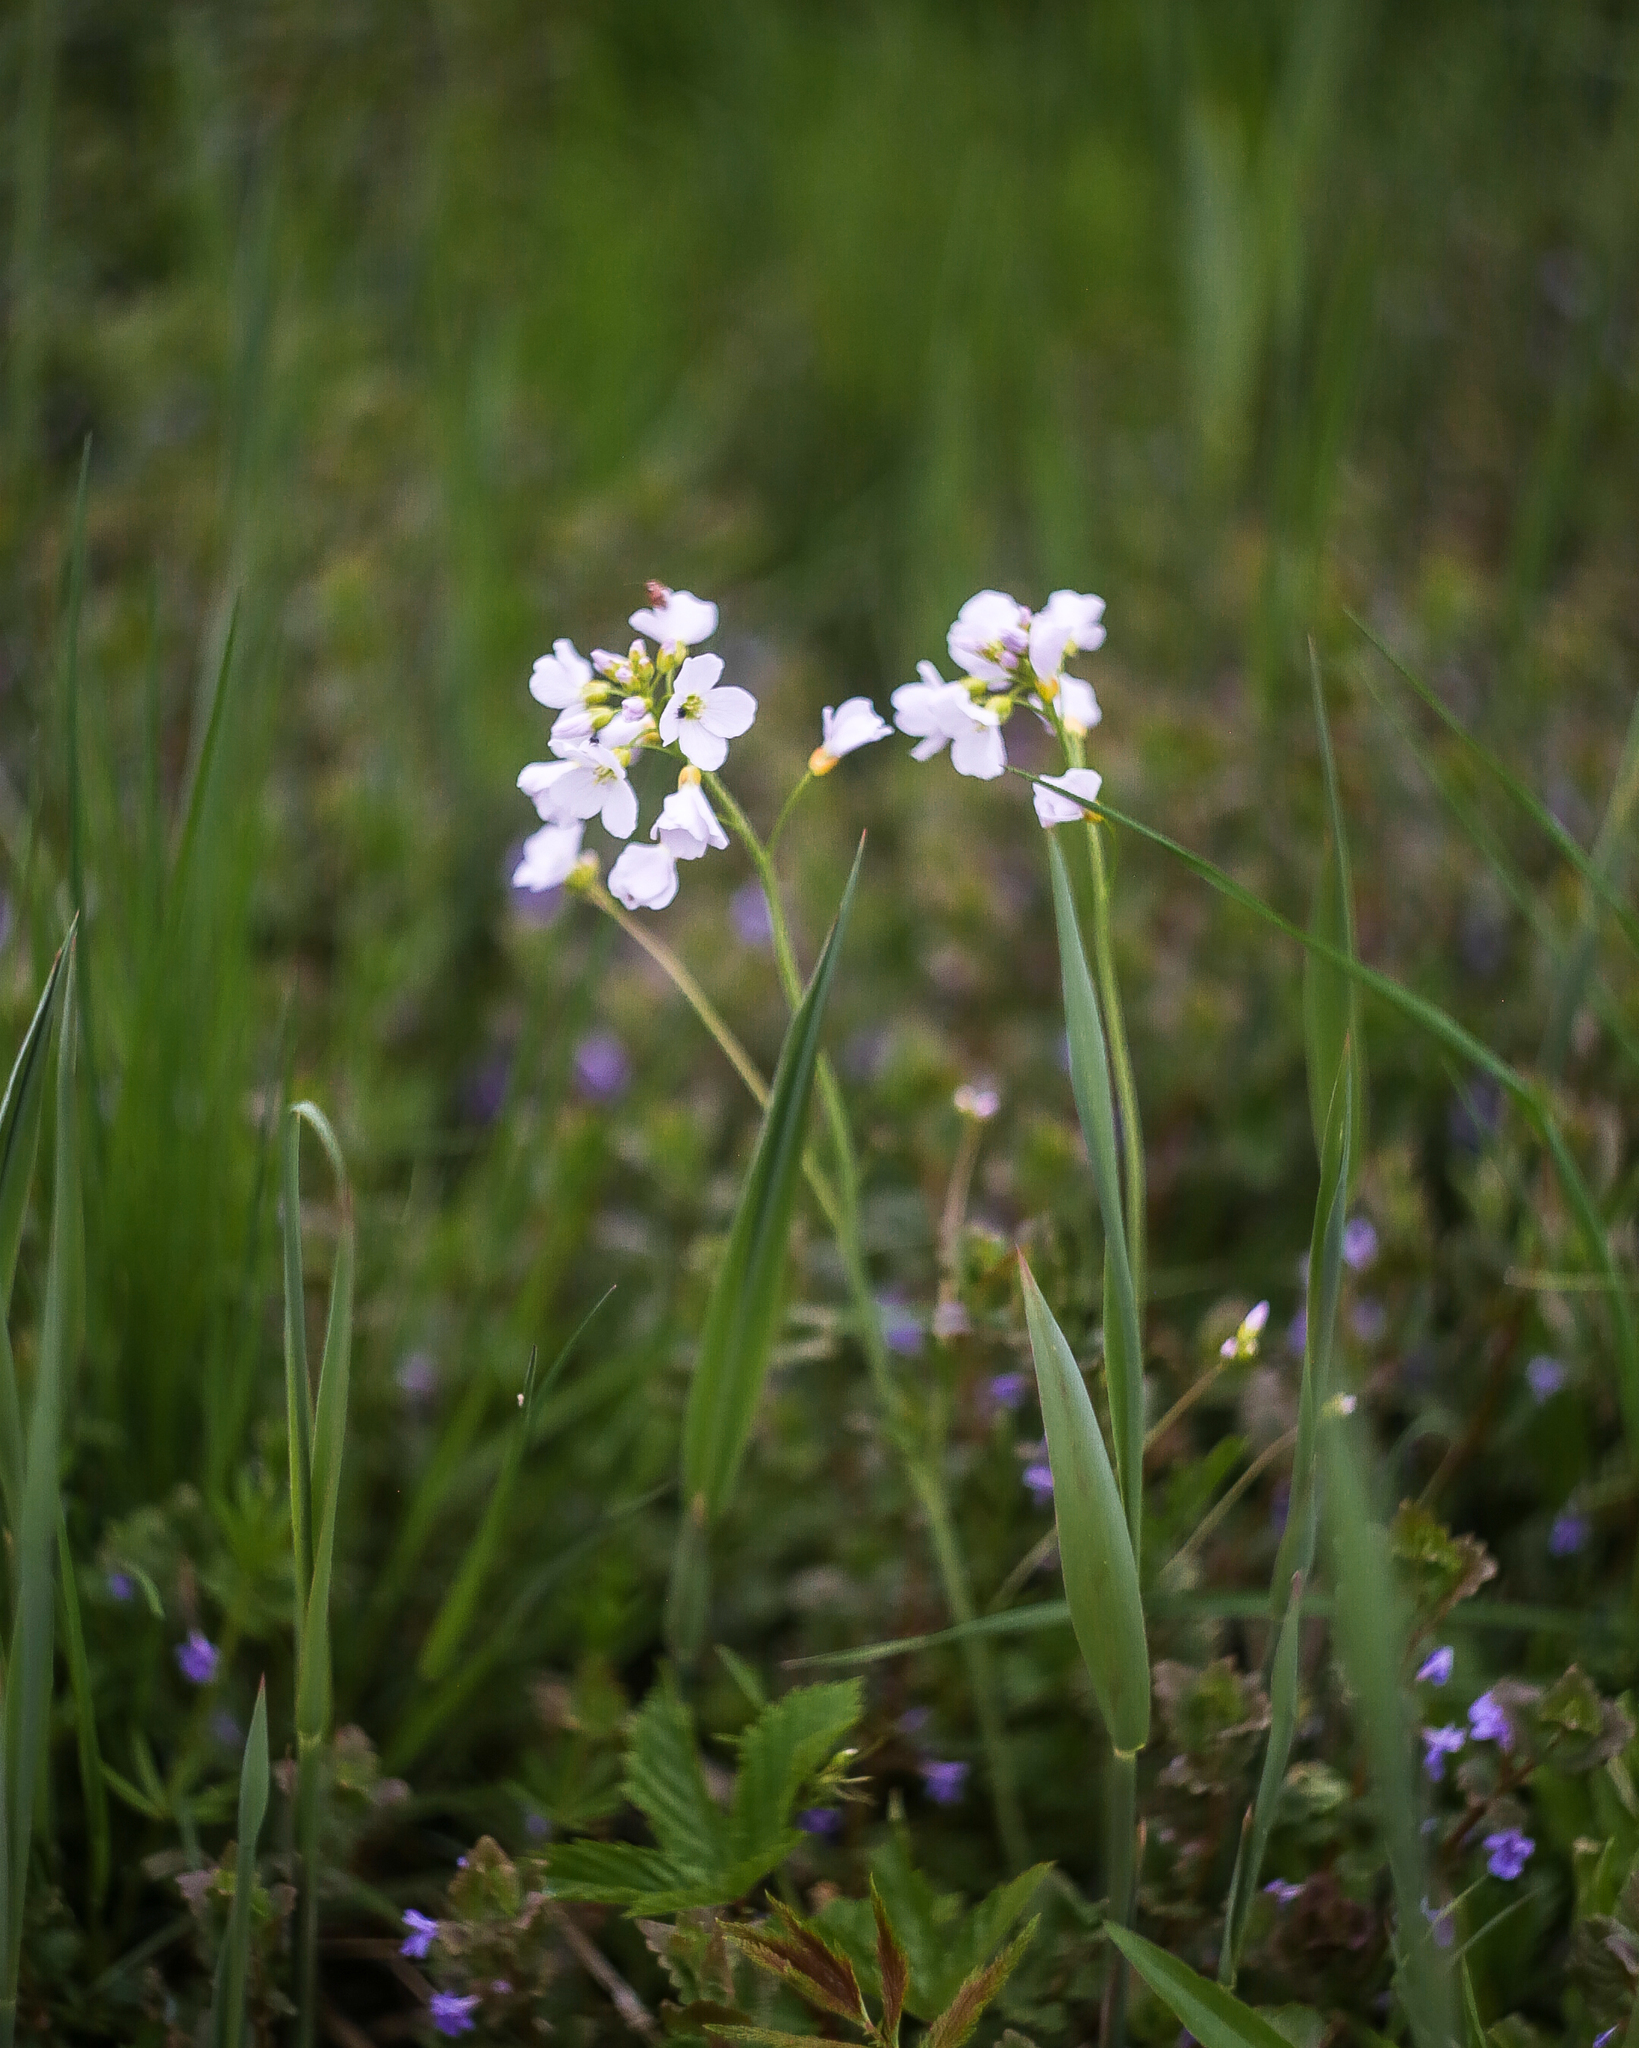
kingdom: Plantae
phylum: Tracheophyta
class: Magnoliopsida
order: Brassicales
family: Brassicaceae
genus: Cardamine
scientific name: Cardamine dentata
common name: Toothed bittercress
